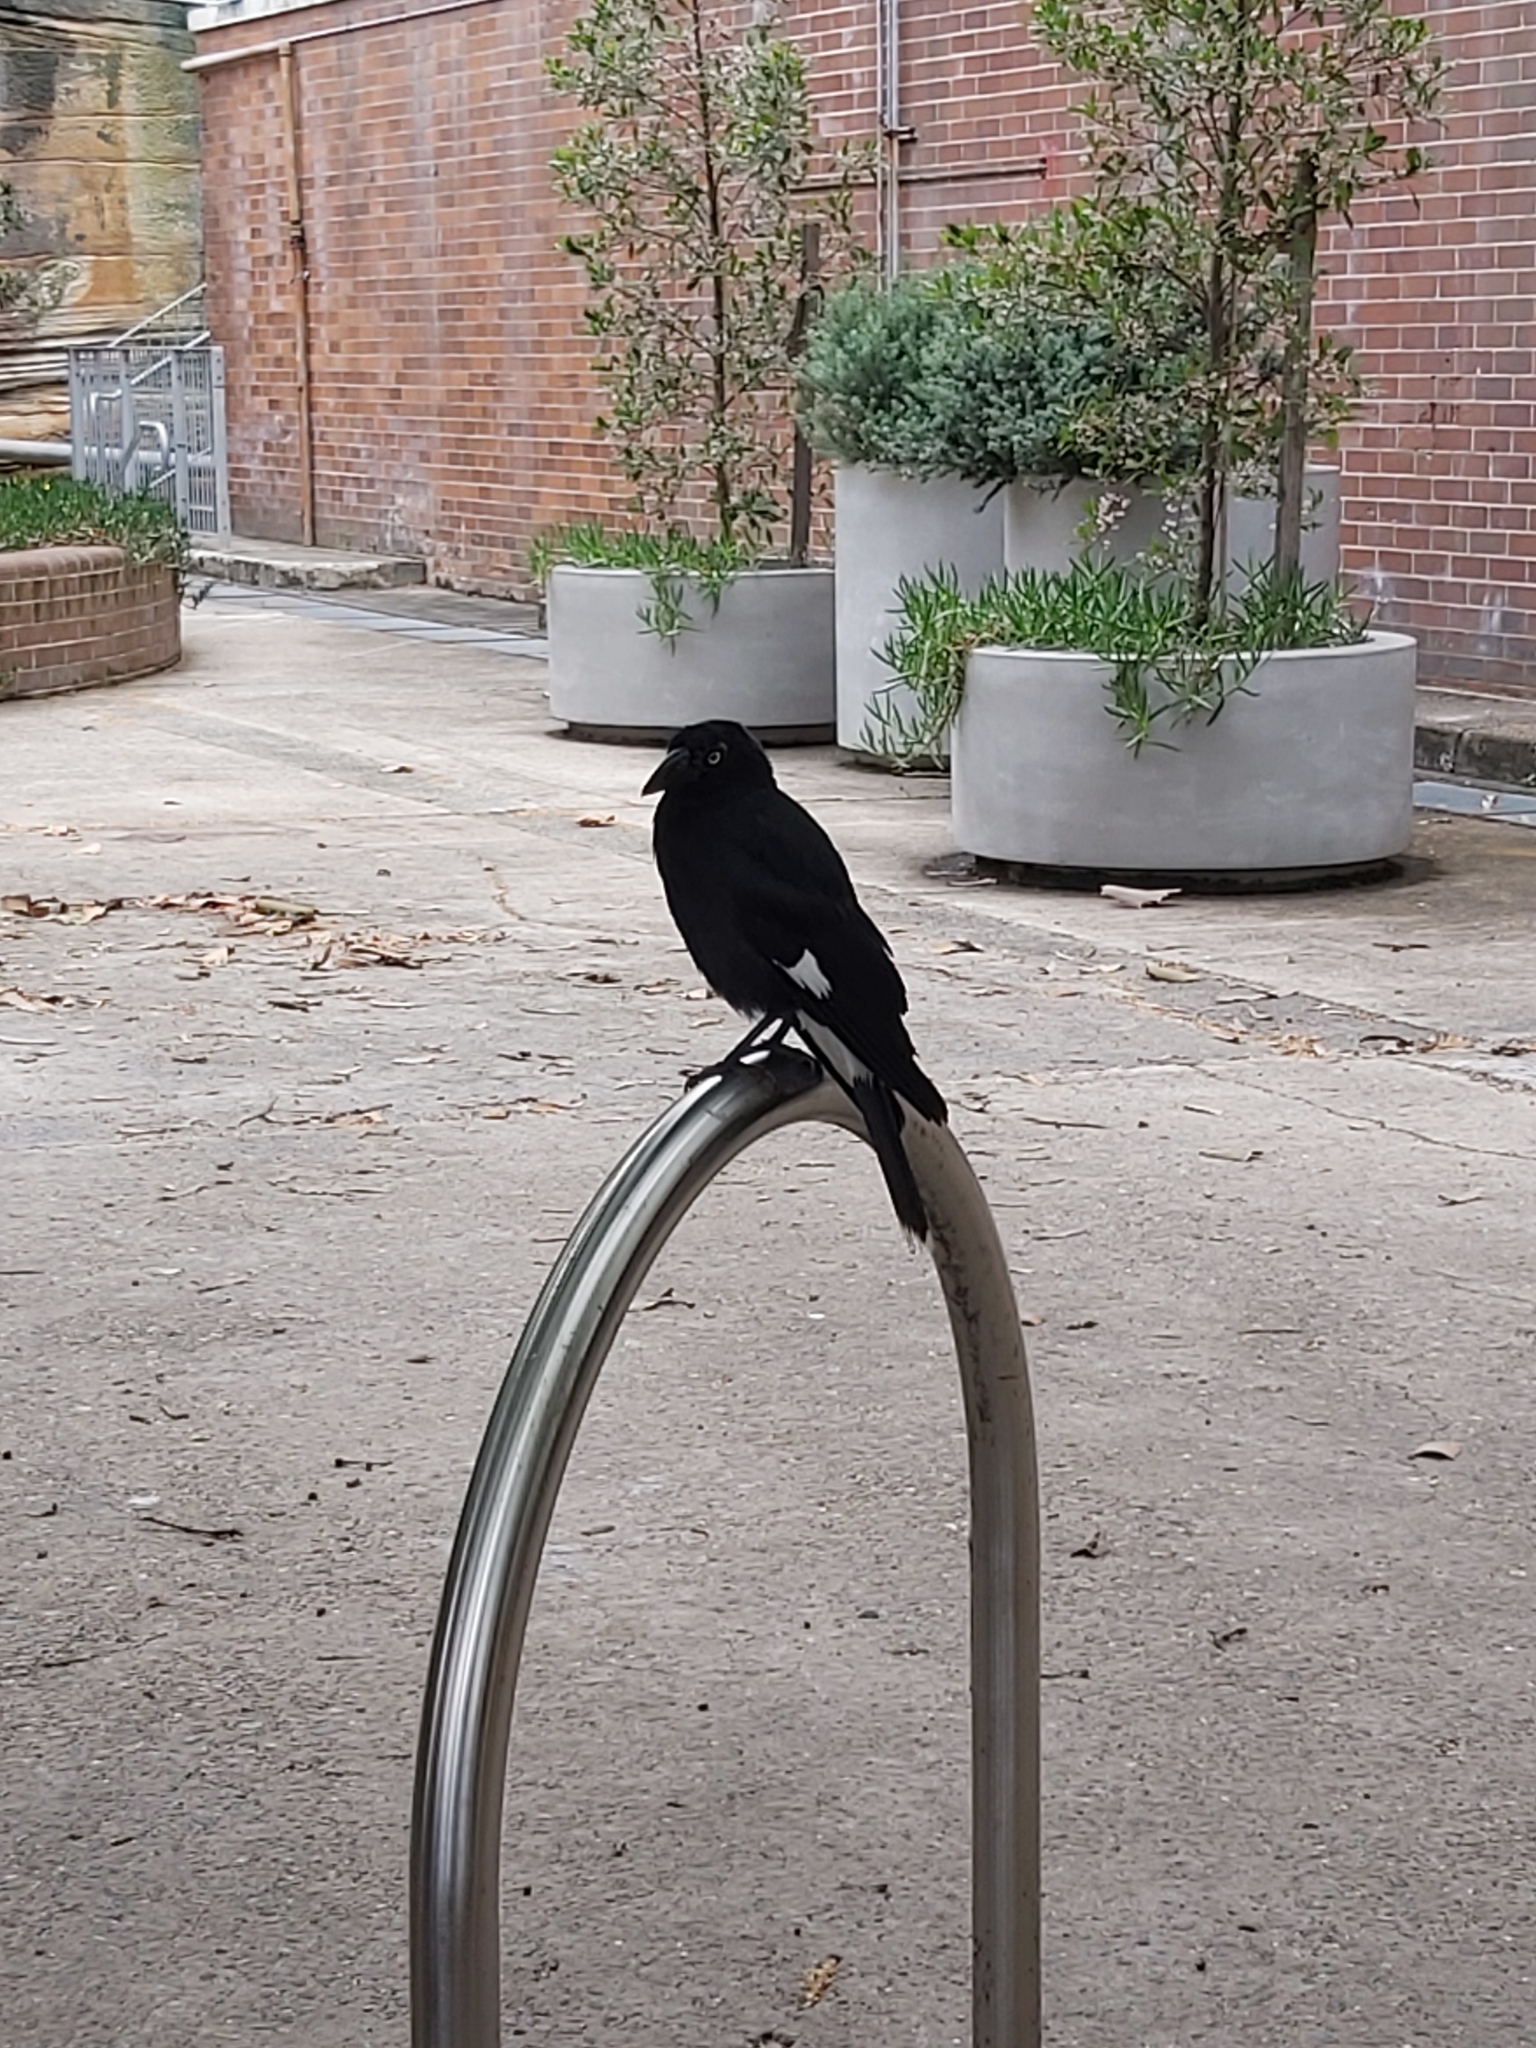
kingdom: Animalia
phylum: Chordata
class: Aves
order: Passeriformes
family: Cracticidae
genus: Strepera
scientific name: Strepera graculina
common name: Pied currawong
